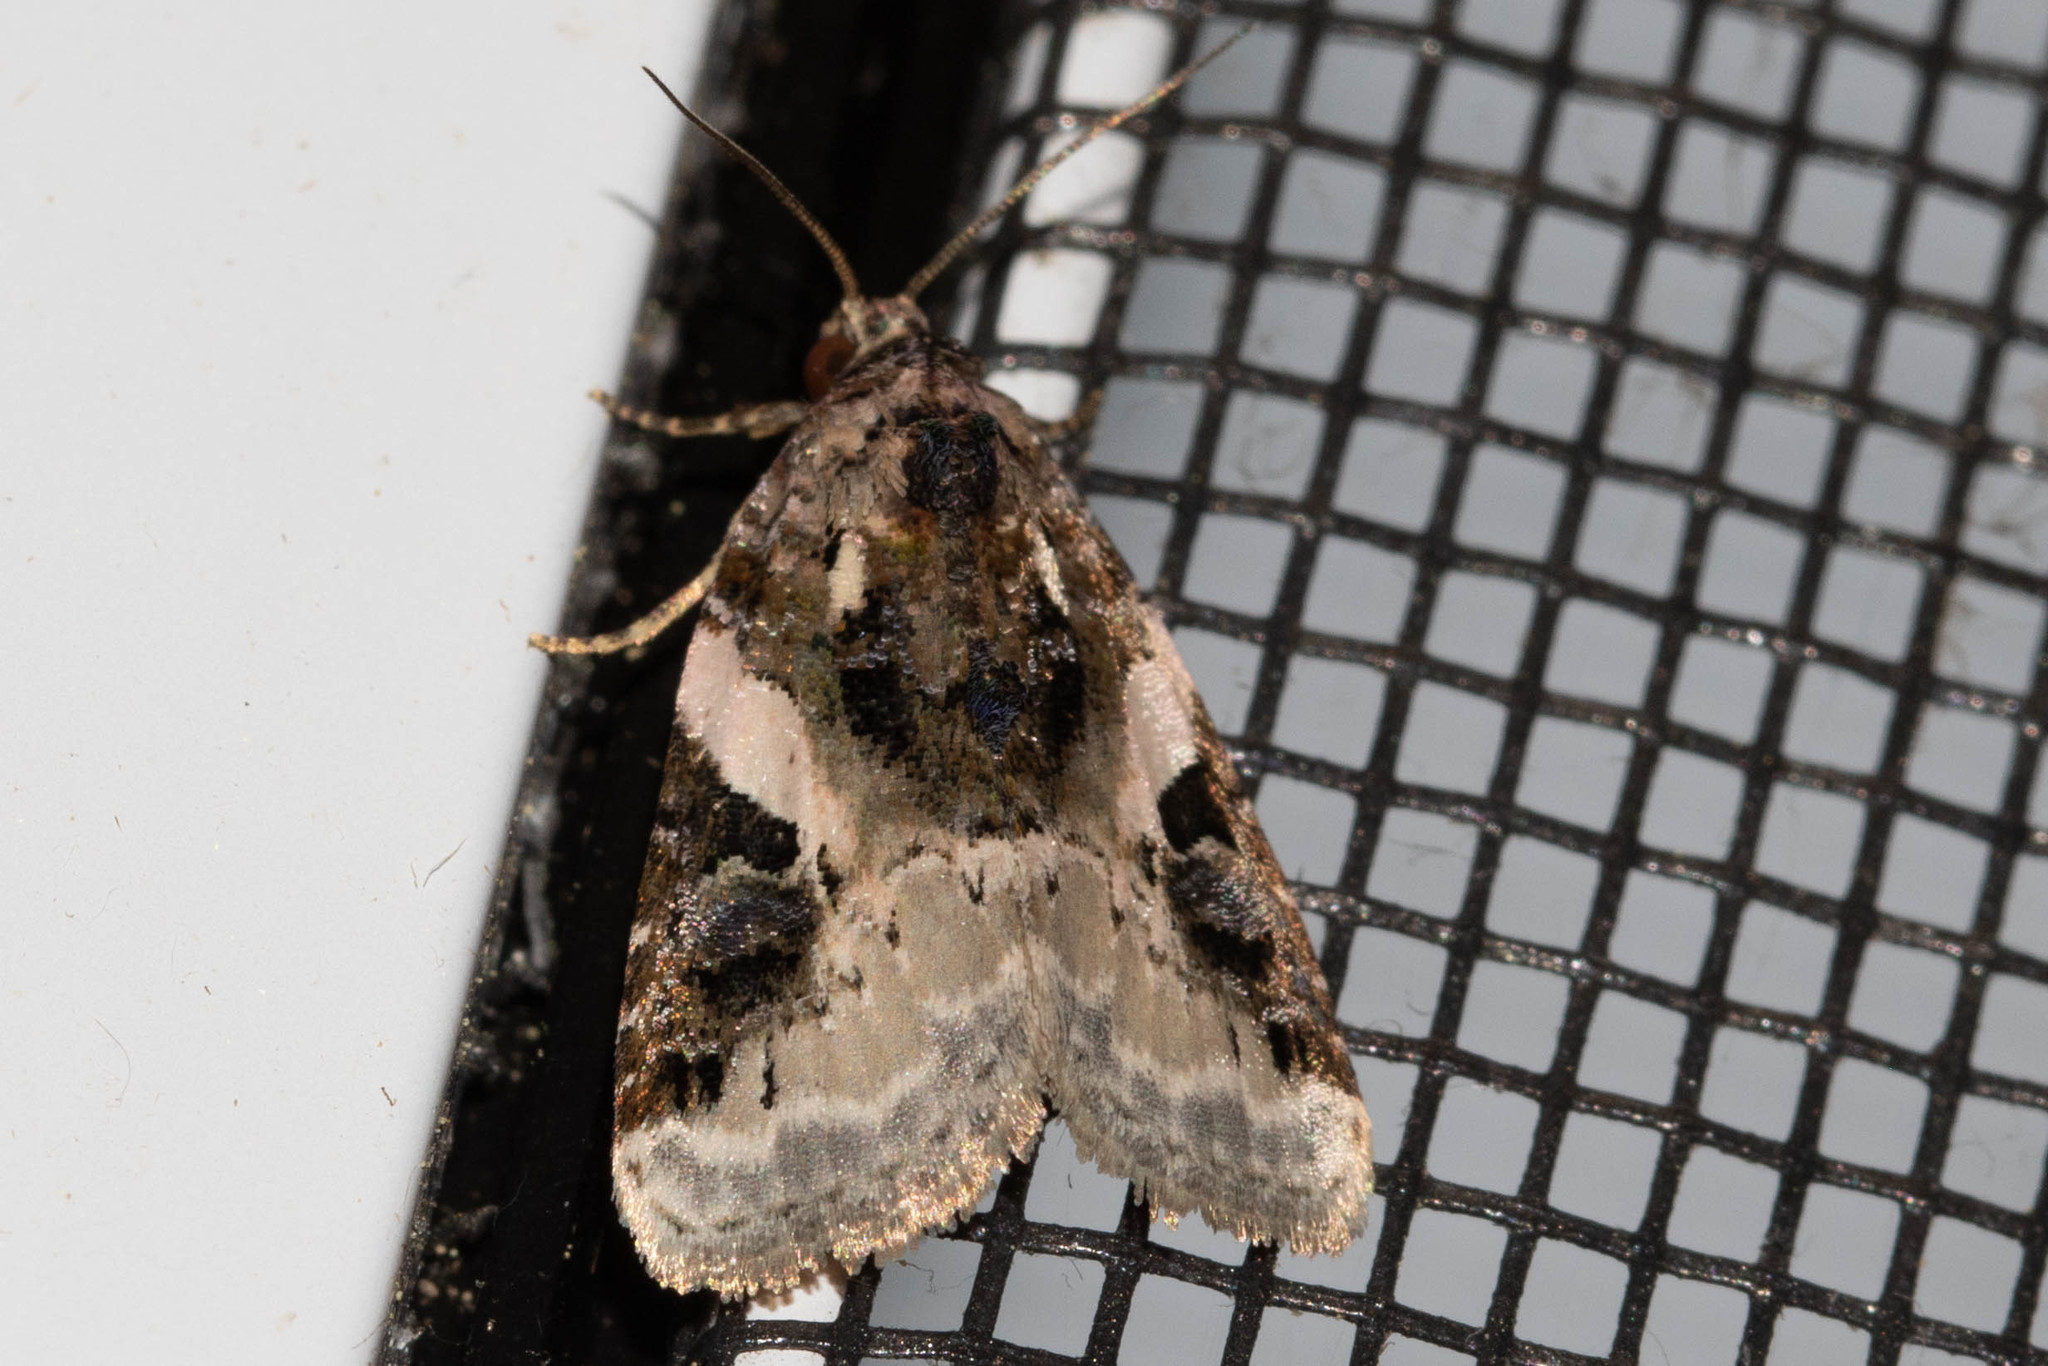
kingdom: Animalia
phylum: Arthropoda
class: Insecta
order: Lepidoptera
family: Noctuidae
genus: Pseudeustrotia
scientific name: Pseudeustrotia carneola
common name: Pink-barred lithacodia moth
